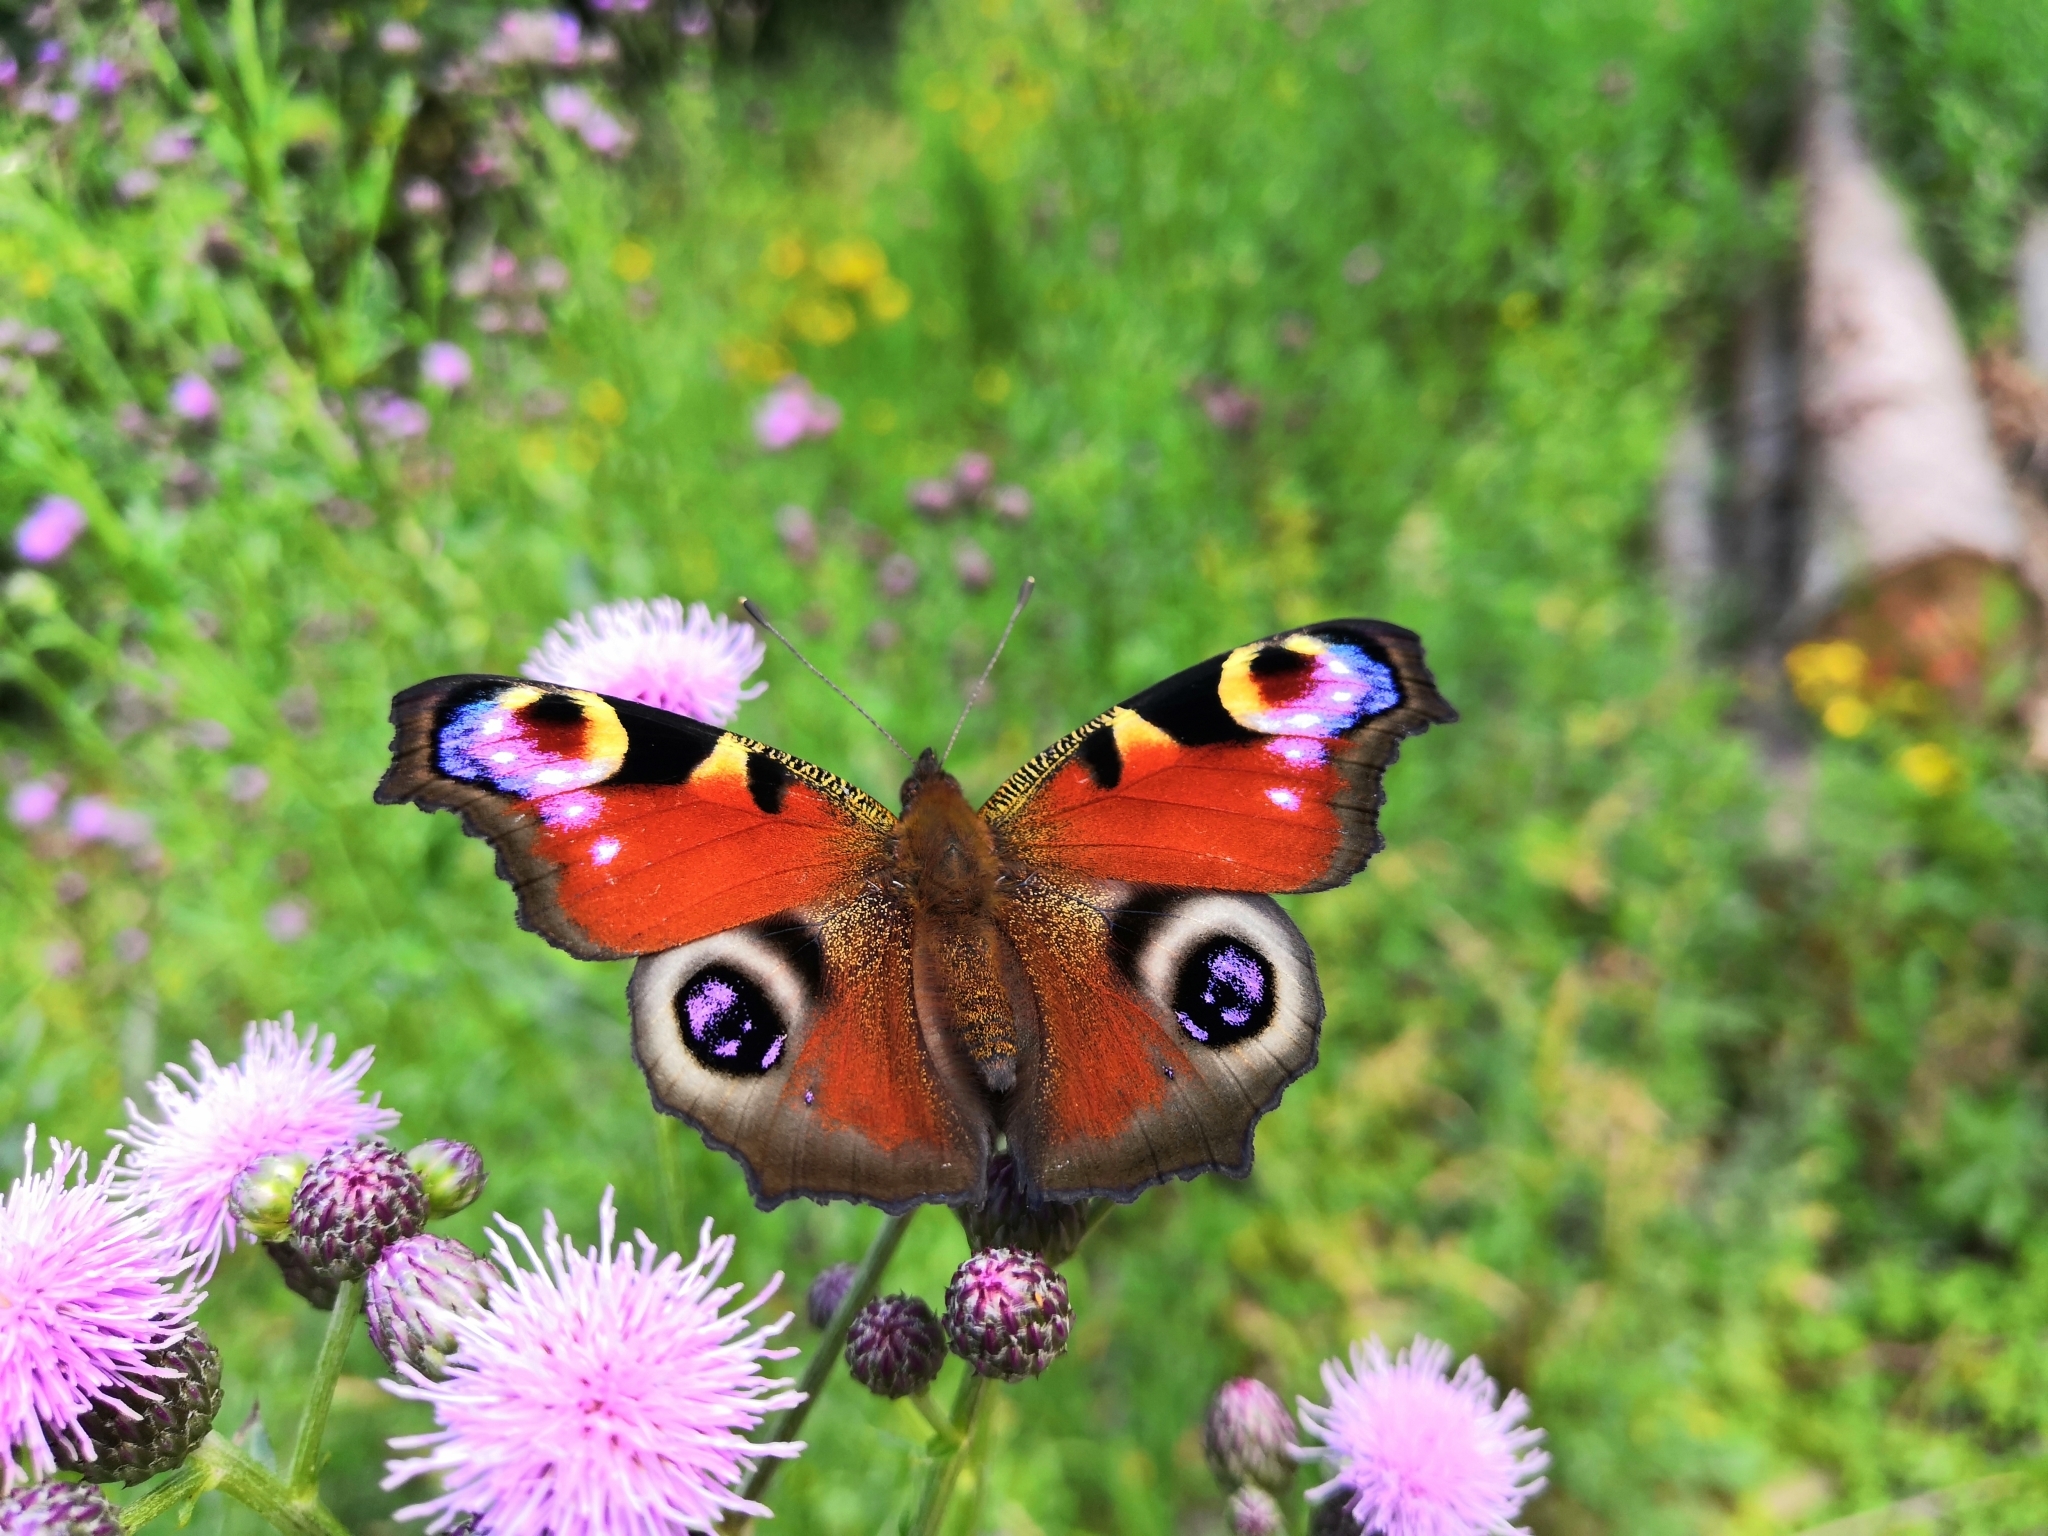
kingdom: Animalia
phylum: Arthropoda
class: Insecta
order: Lepidoptera
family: Nymphalidae
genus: Aglais
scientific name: Aglais io
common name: Peacock
